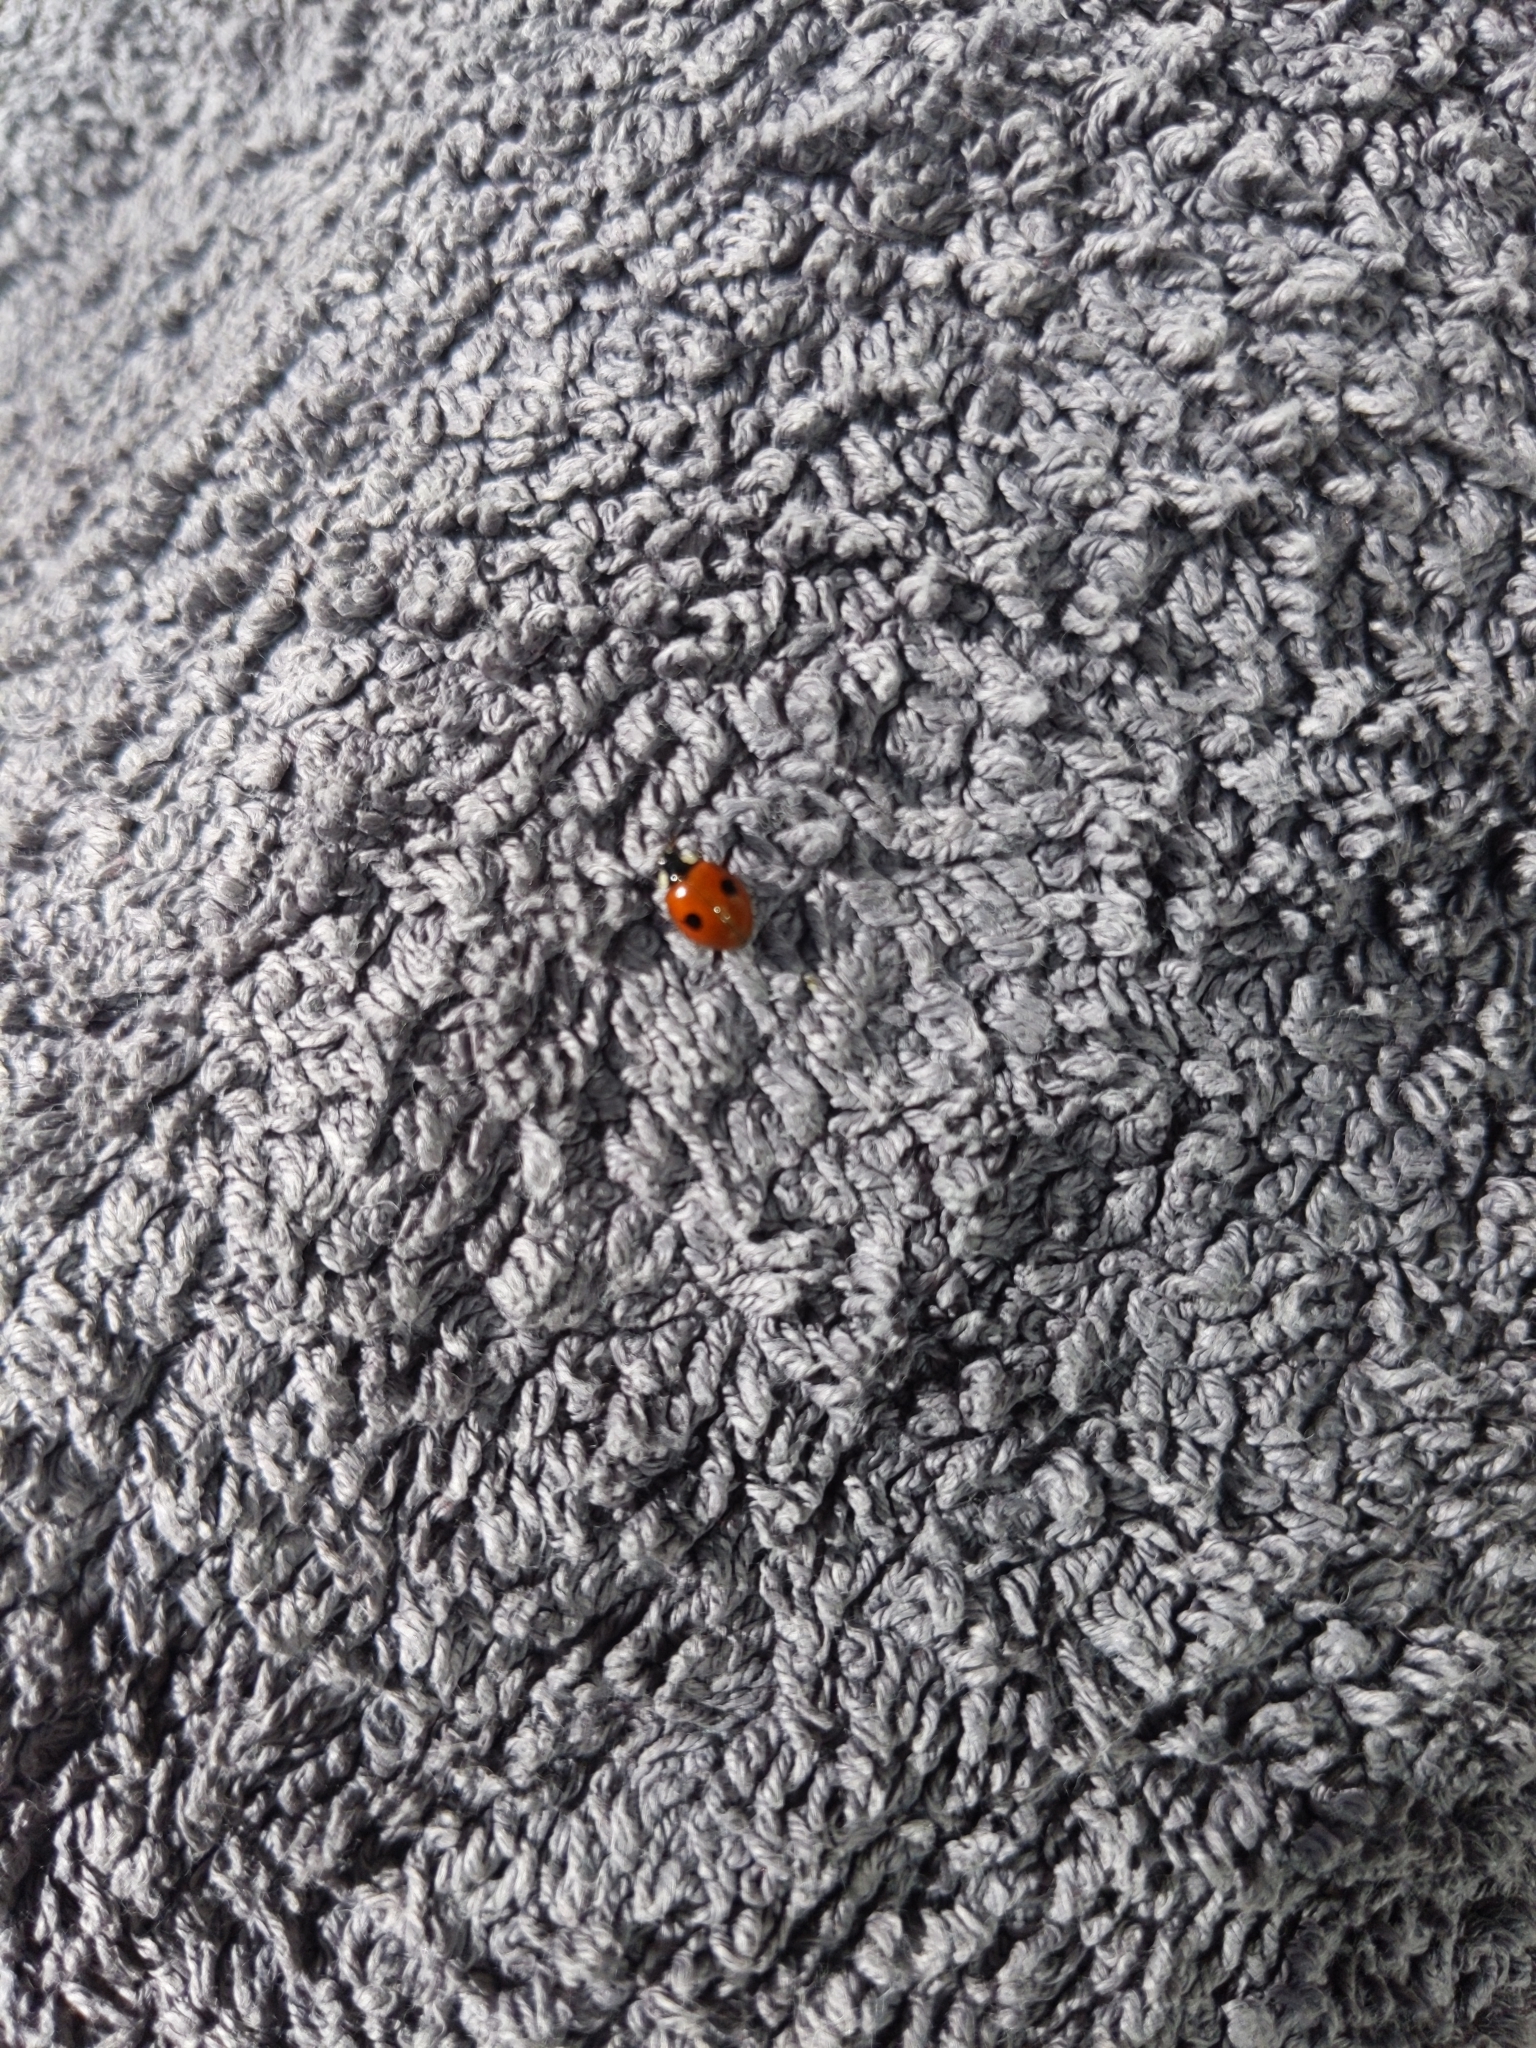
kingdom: Animalia
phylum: Arthropoda
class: Insecta
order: Coleoptera
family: Coccinellidae
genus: Adalia
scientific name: Adalia bipunctata
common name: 2-spot ladybird
